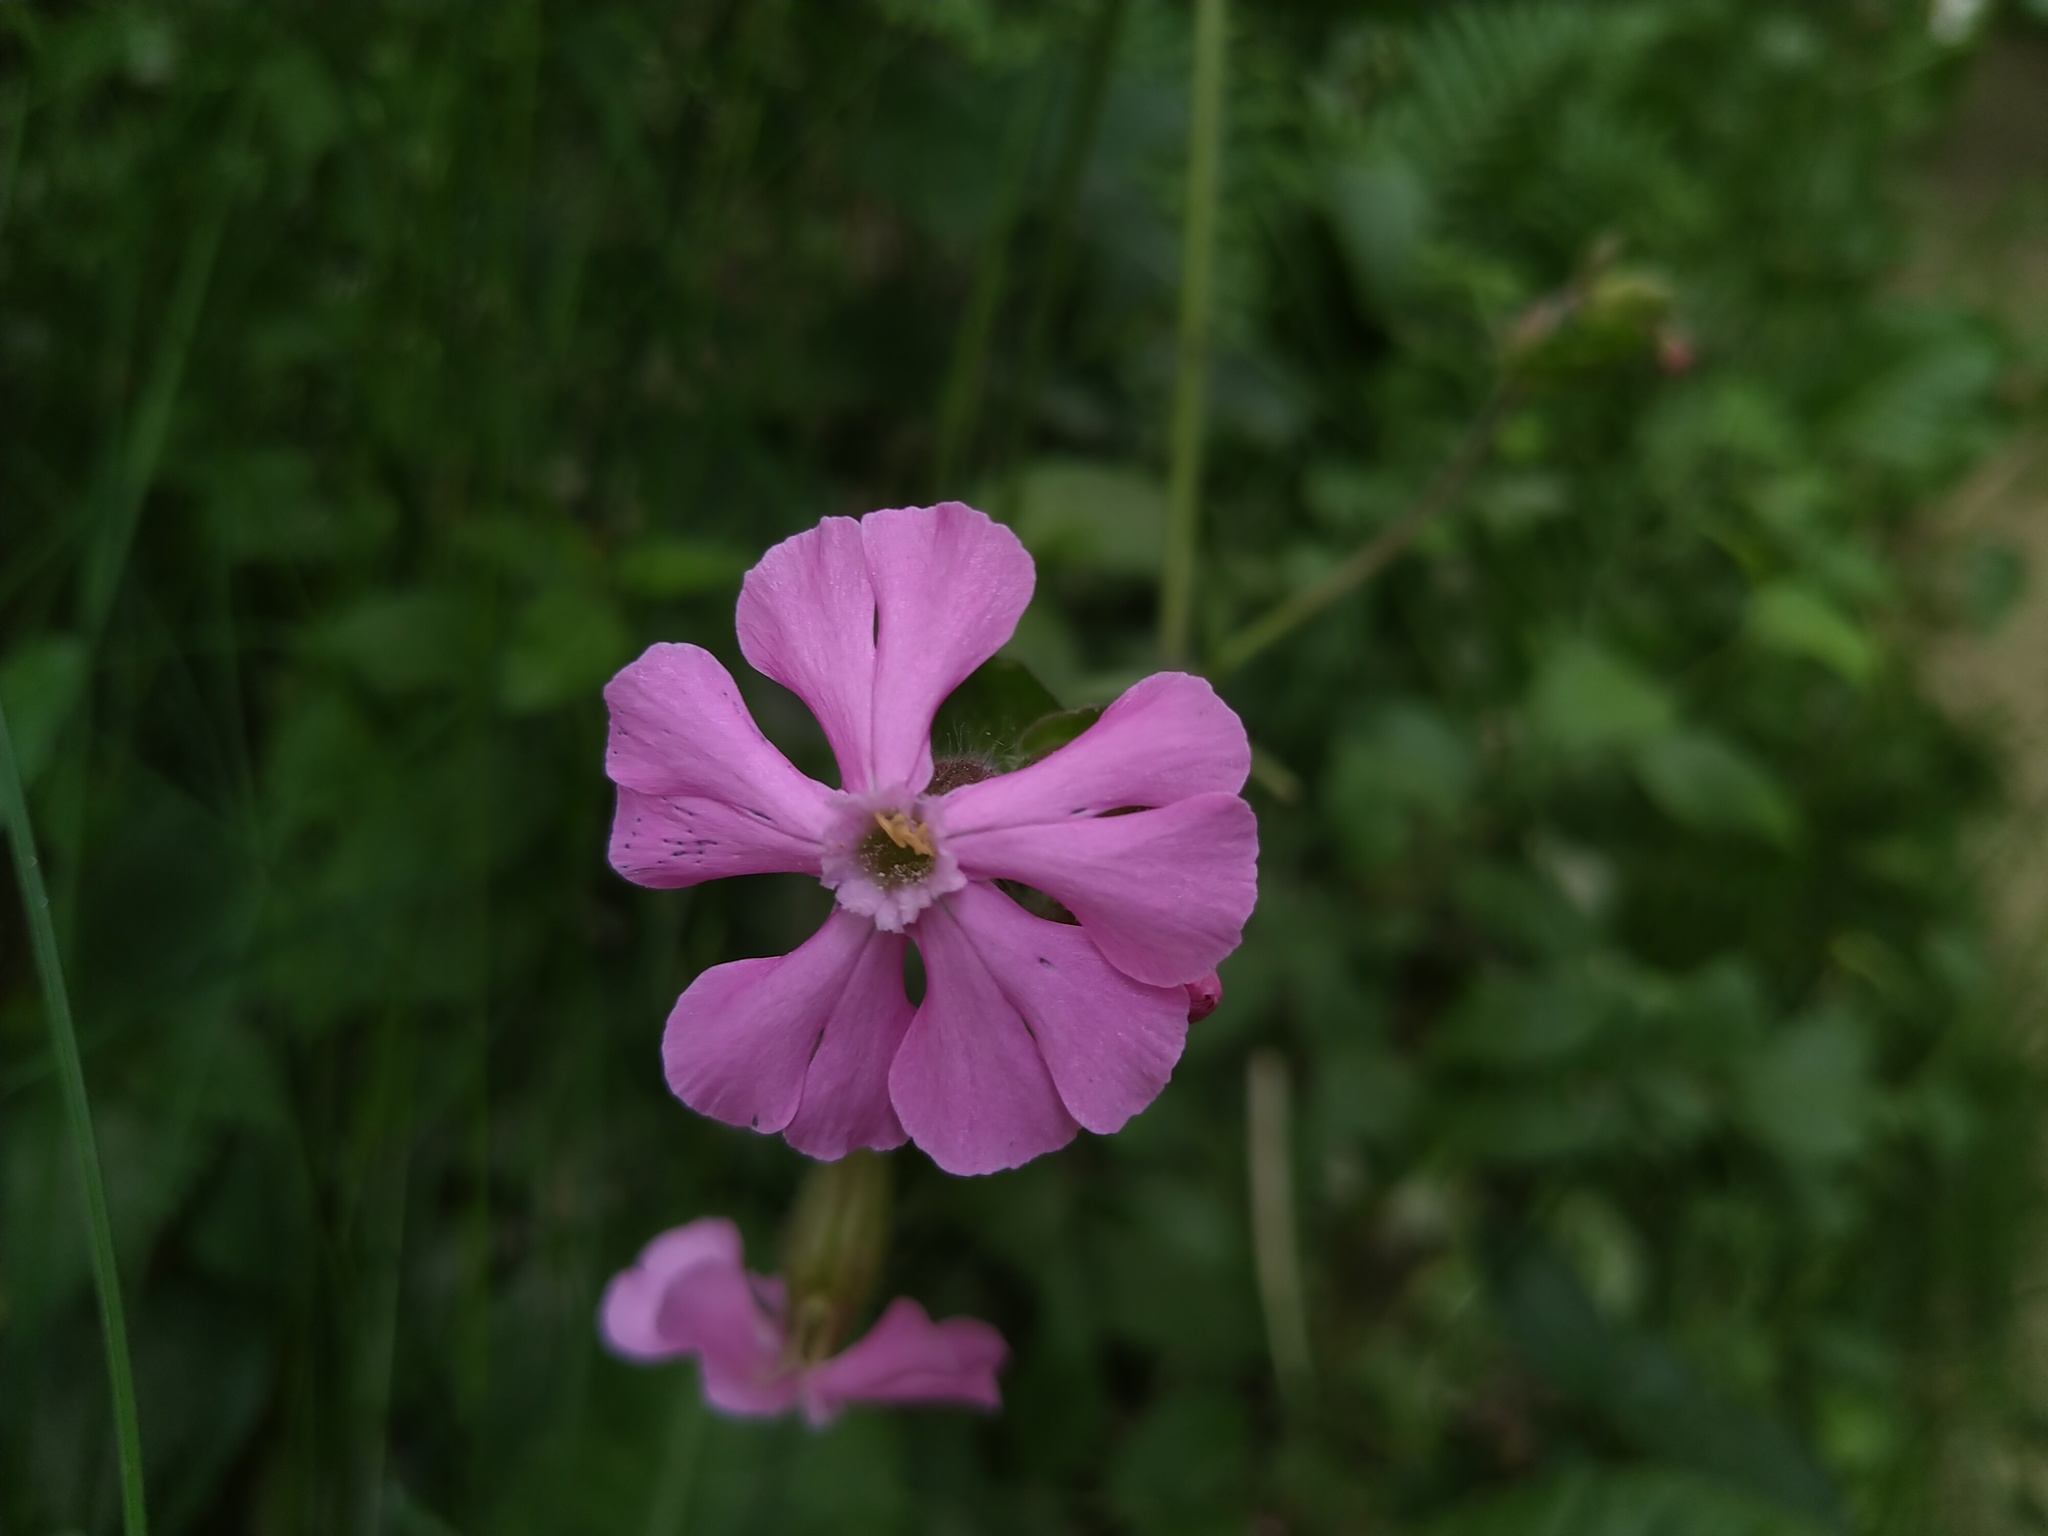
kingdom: Plantae
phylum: Tracheophyta
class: Magnoliopsida
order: Caryophyllales
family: Caryophyllaceae
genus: Silene
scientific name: Silene dioica
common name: Red campion
